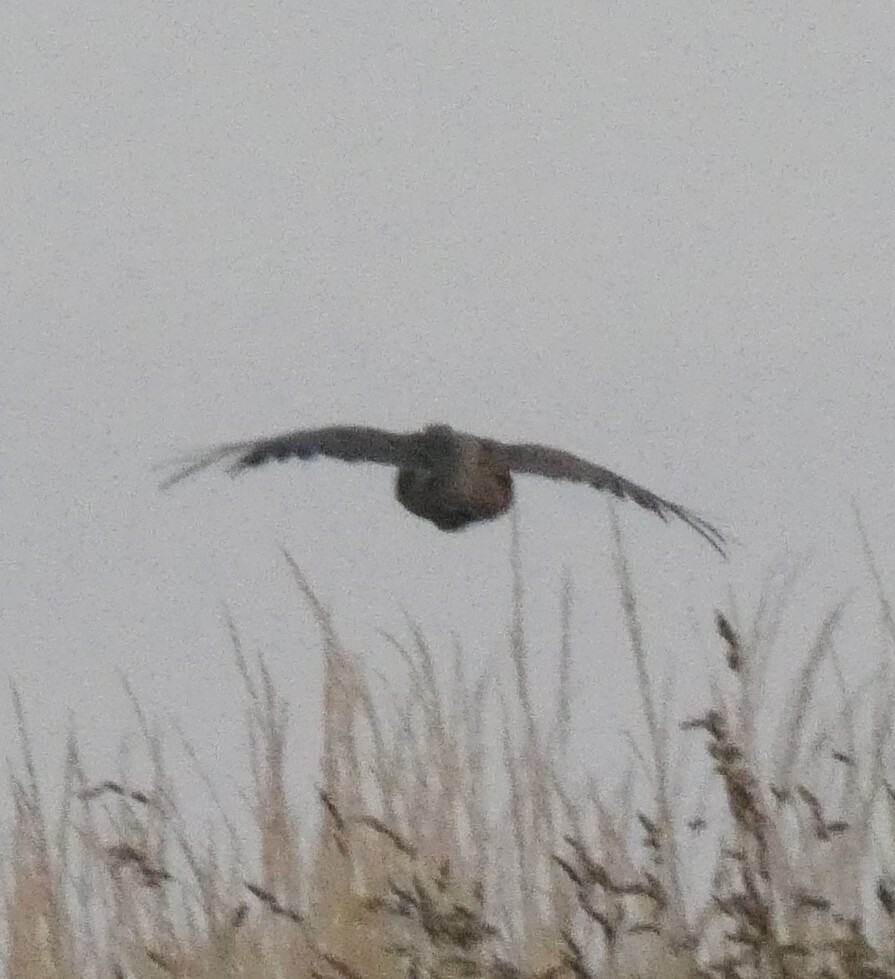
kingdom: Animalia
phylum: Chordata
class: Aves
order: Galliformes
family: Phasianidae
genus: Perdix
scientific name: Perdix perdix
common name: Grey partridge
